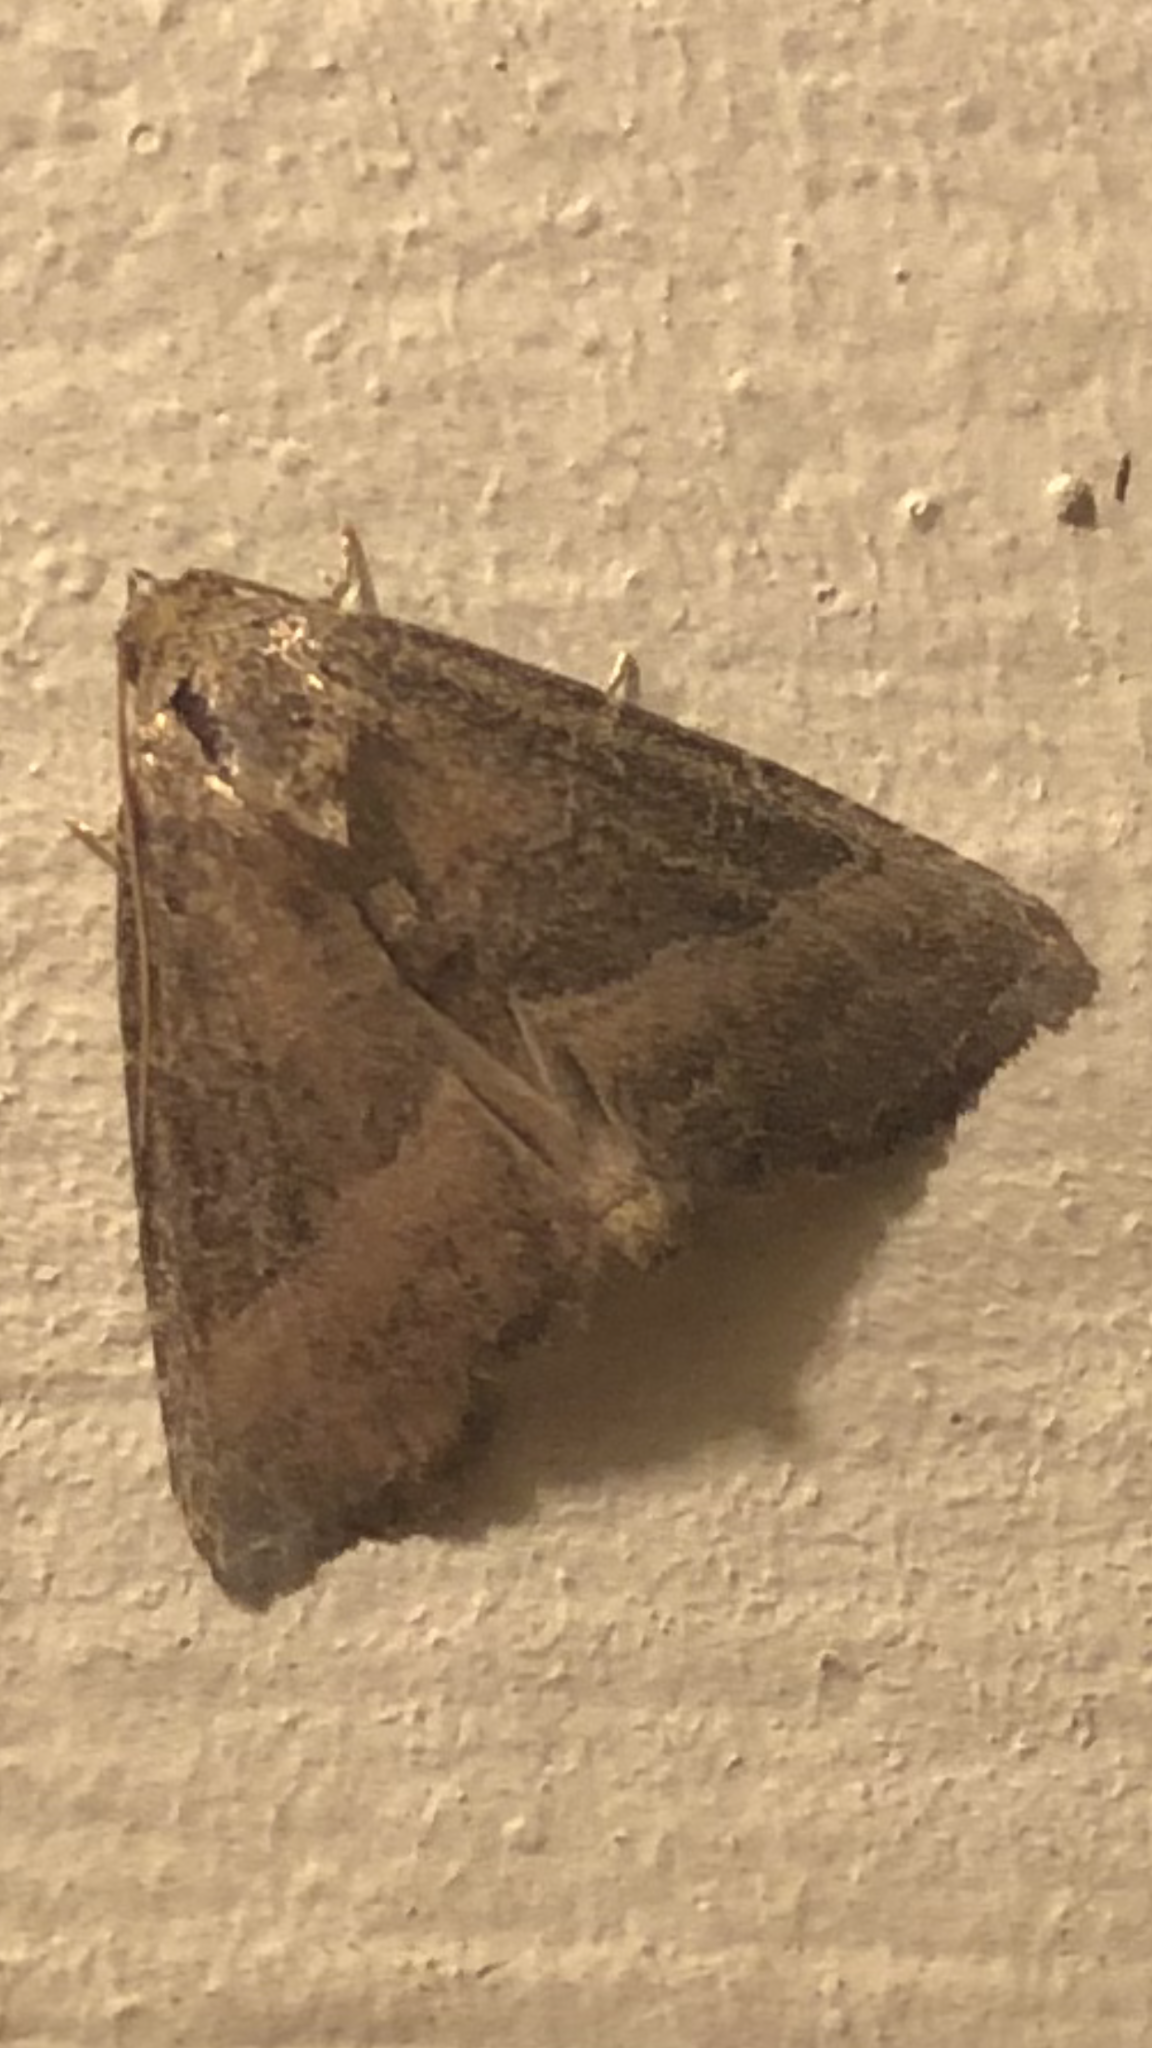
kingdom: Animalia
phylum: Arthropoda
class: Insecta
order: Lepidoptera
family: Noctuidae
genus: Ogdoconta
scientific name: Ogdoconta cinereola
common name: Common pinkband
